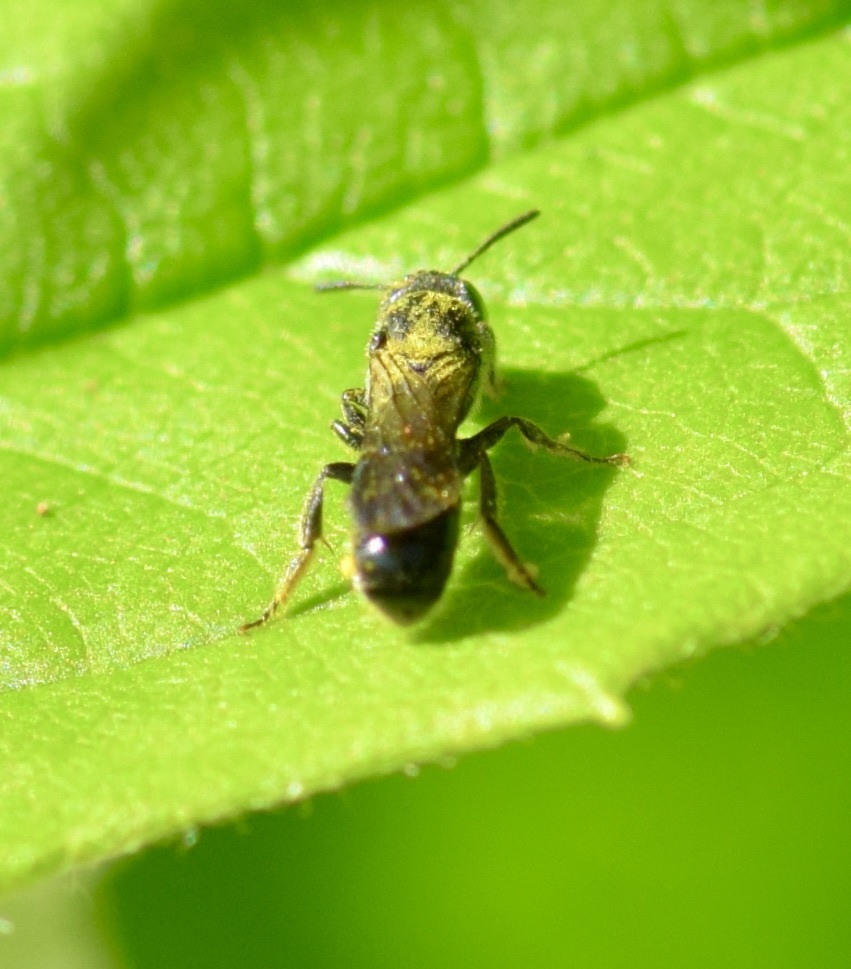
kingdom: Animalia
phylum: Arthropoda
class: Insecta
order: Hymenoptera
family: Megachilidae
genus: Chelostoma
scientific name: Chelostoma philadelphi
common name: Mock-orange scissor bee
